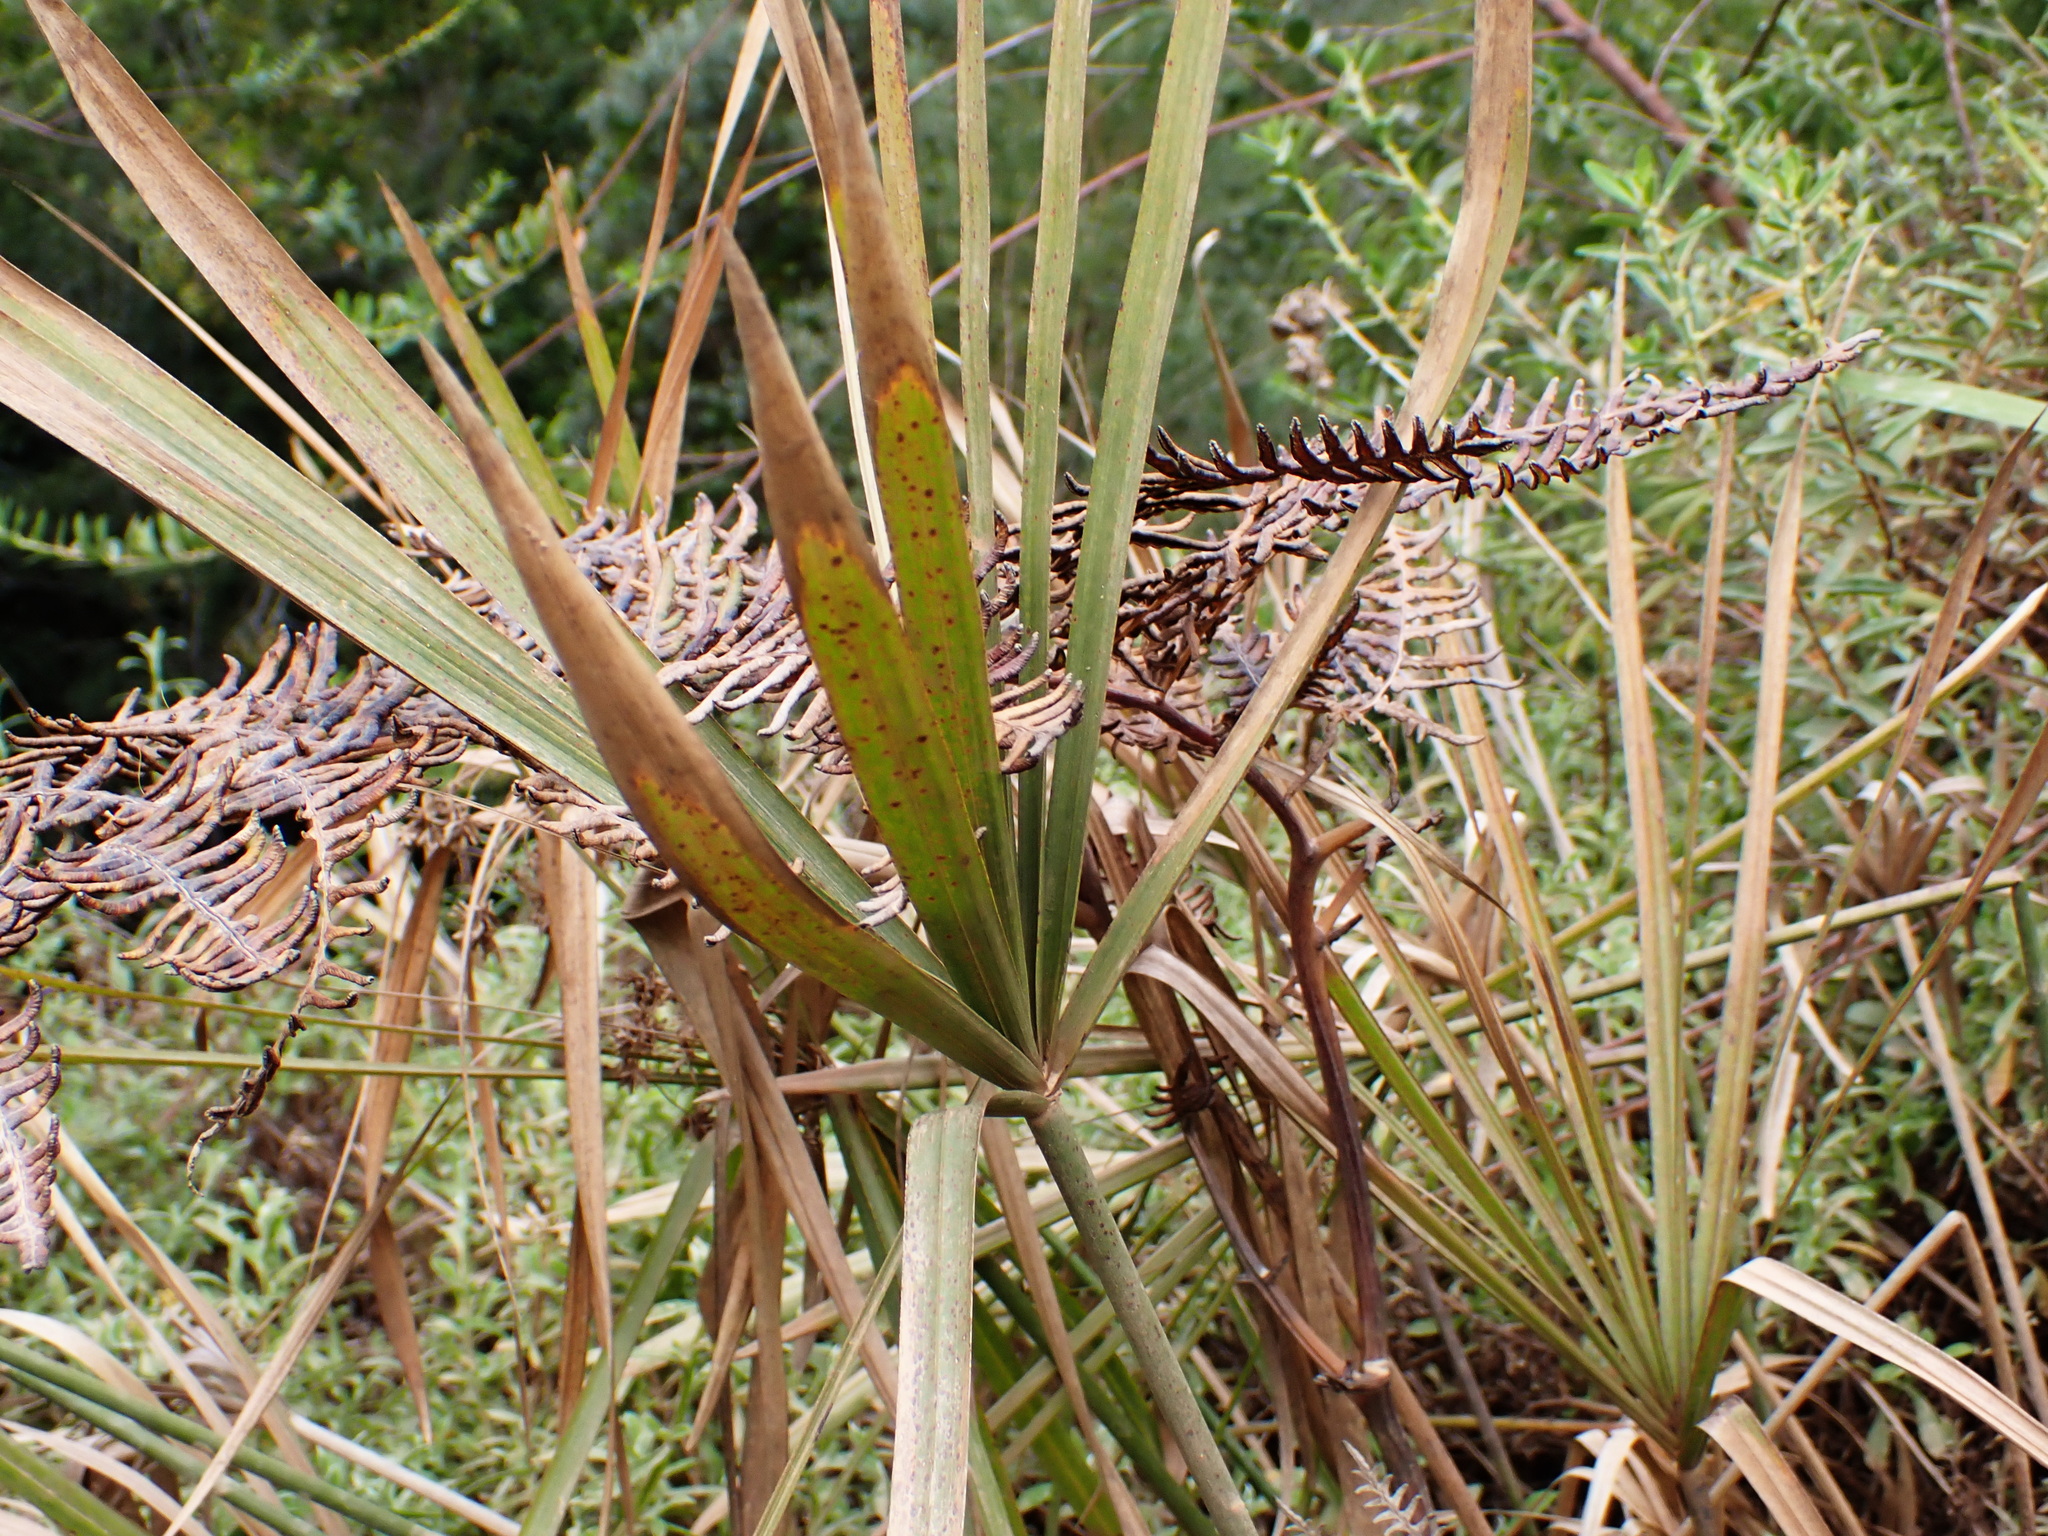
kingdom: Plantae
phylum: Tracheophyta
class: Liliopsida
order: Poales
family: Cyperaceae
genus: Cyperus
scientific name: Cyperus textilis
